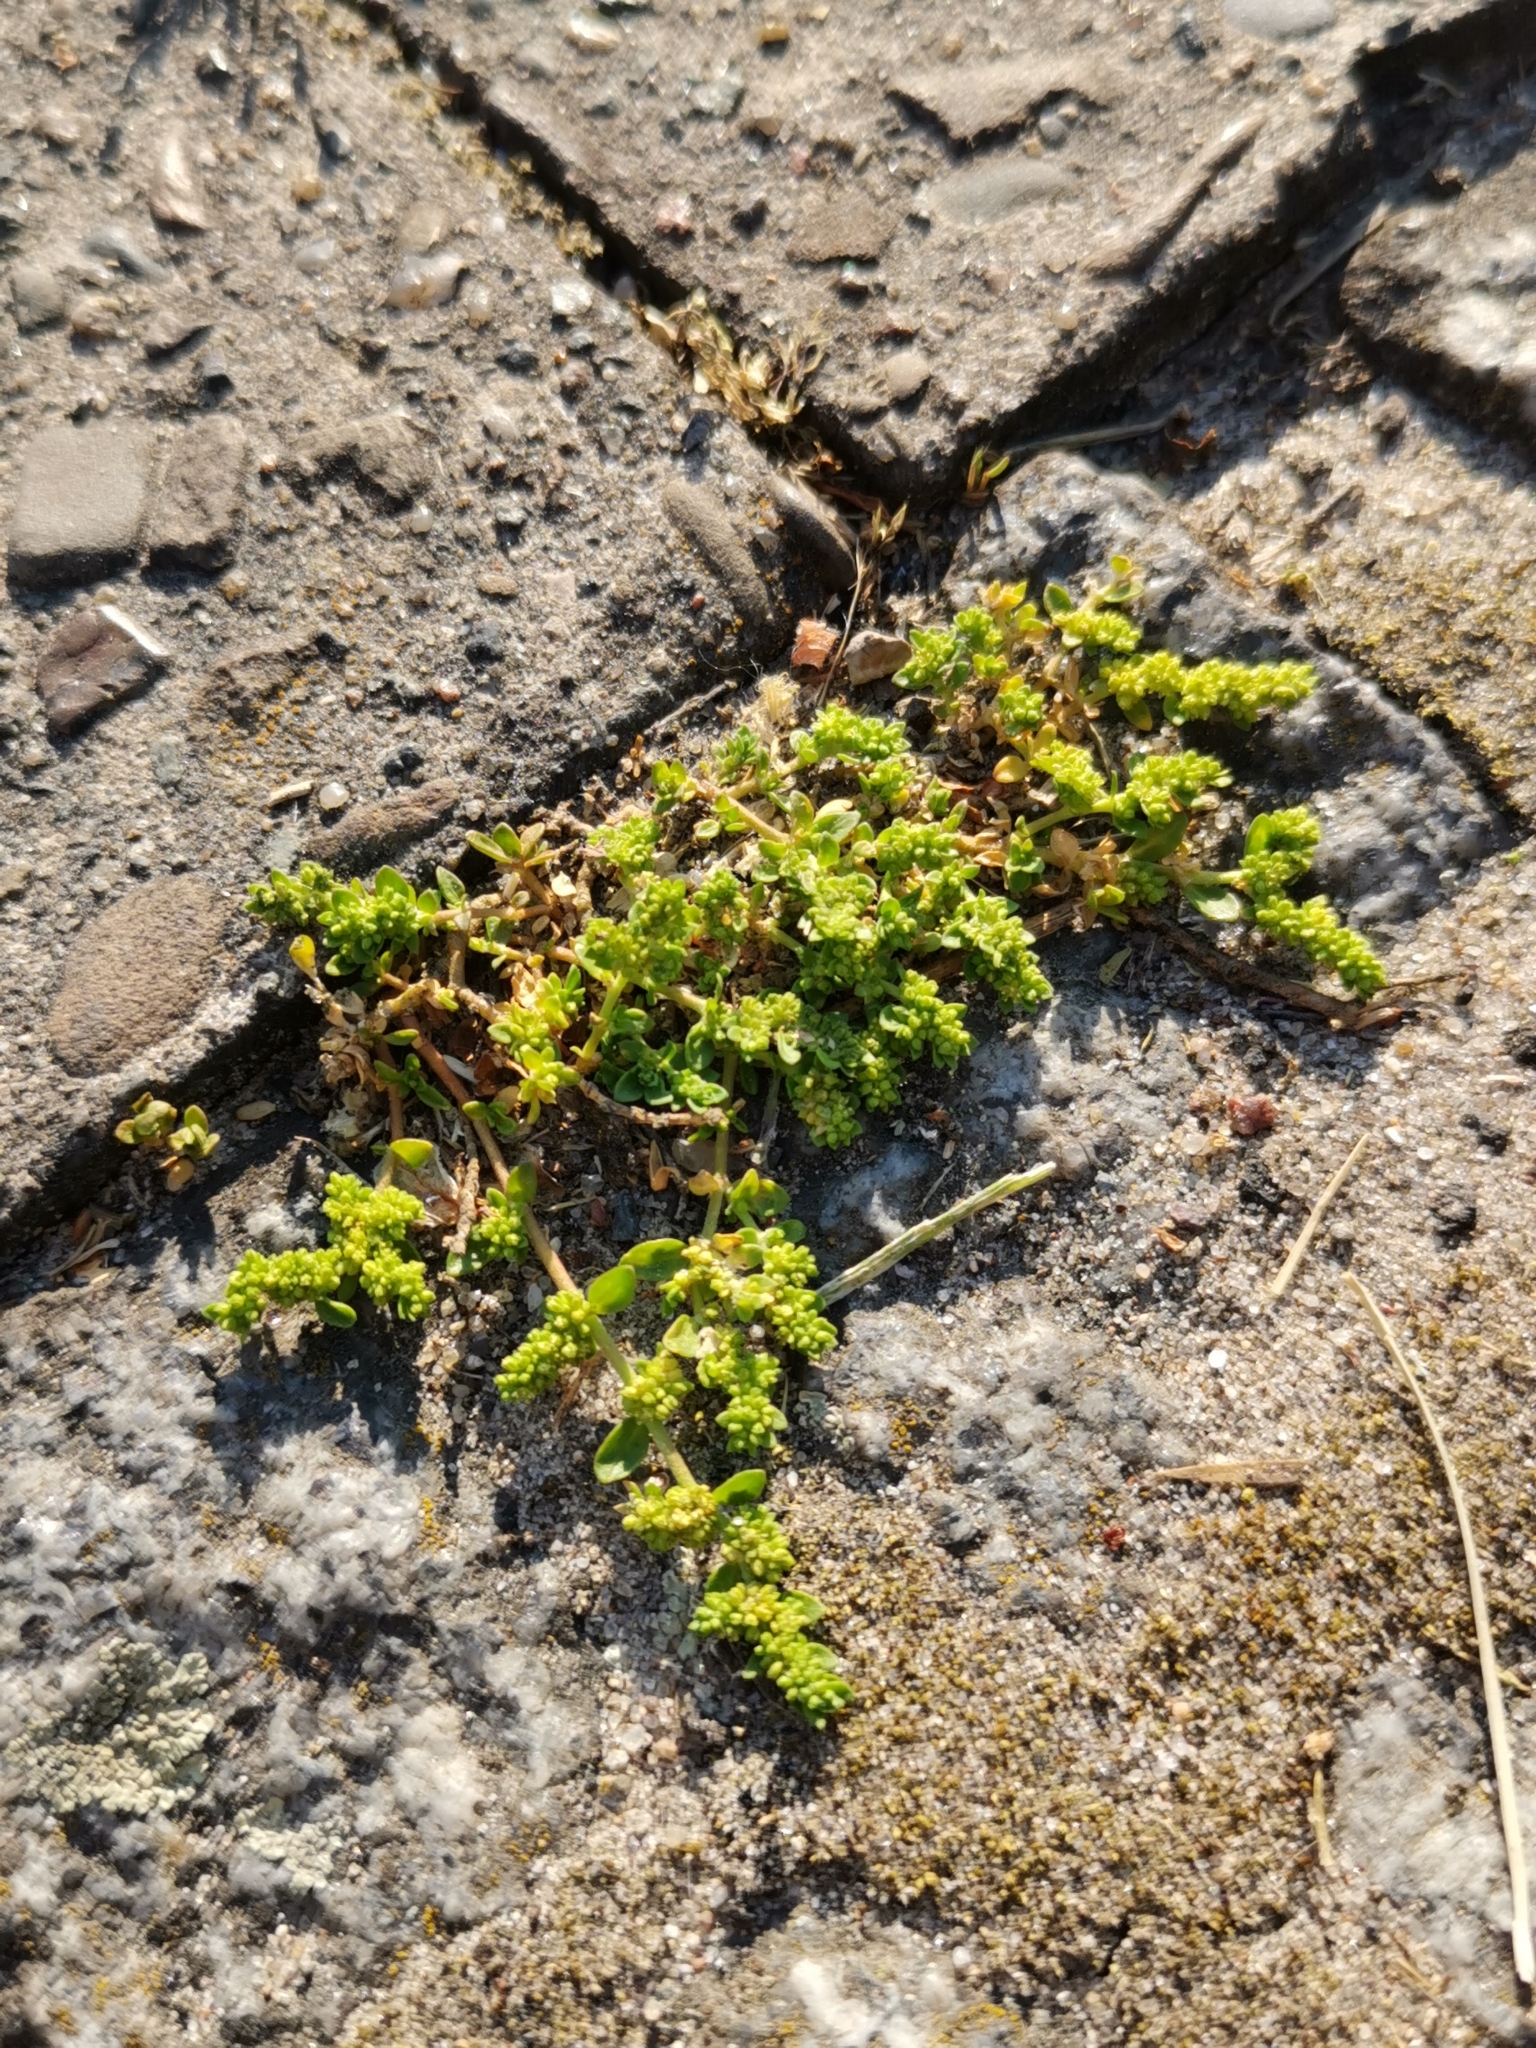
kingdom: Plantae
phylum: Tracheophyta
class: Magnoliopsida
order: Caryophyllales
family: Caryophyllaceae
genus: Herniaria
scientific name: Herniaria glabra
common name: Smooth rupturewort
